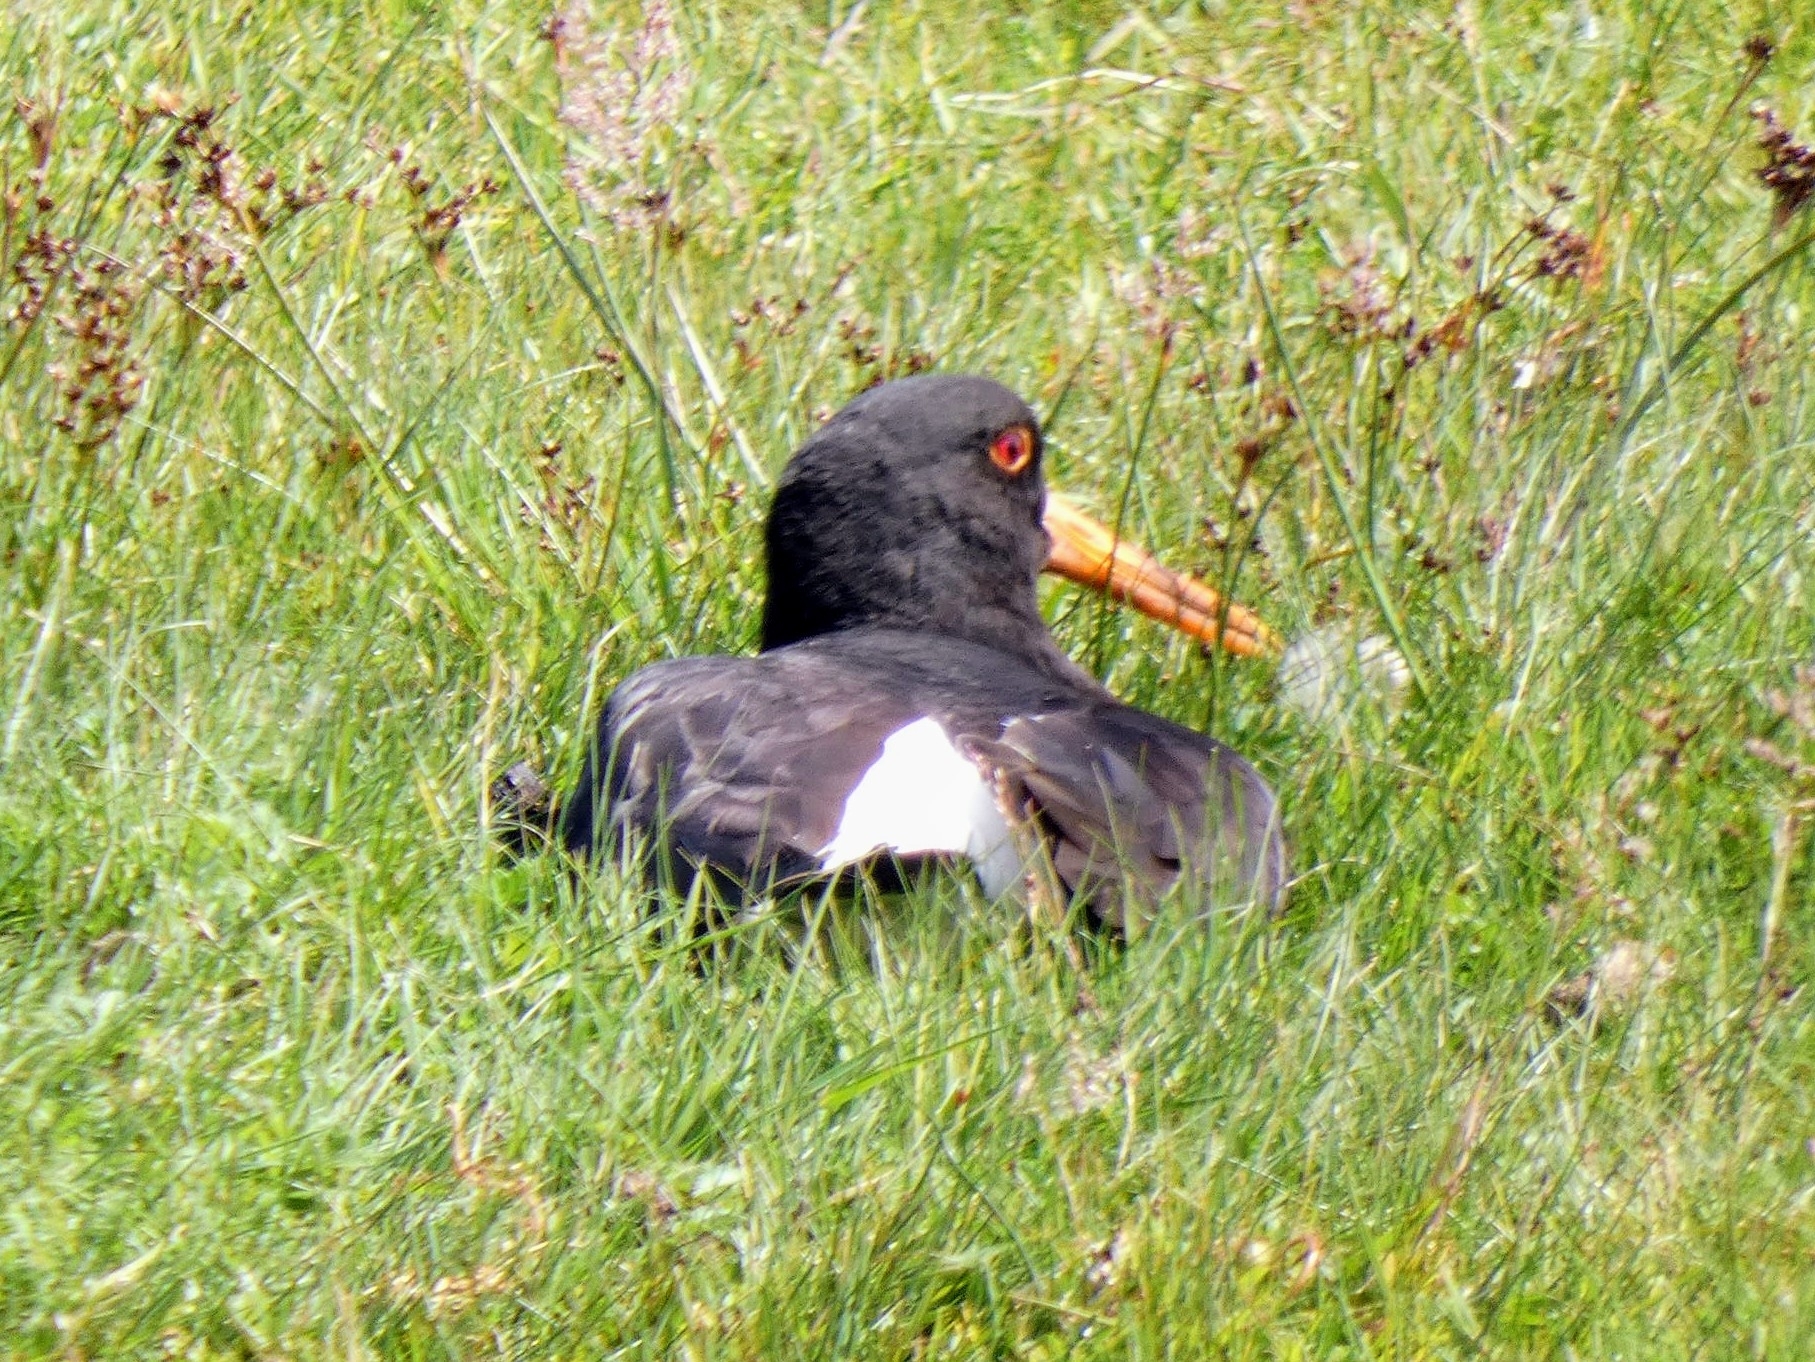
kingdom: Animalia
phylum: Chordata
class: Aves
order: Charadriiformes
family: Haematopodidae
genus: Haematopus
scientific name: Haematopus ostralegus
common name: Eurasian oystercatcher
